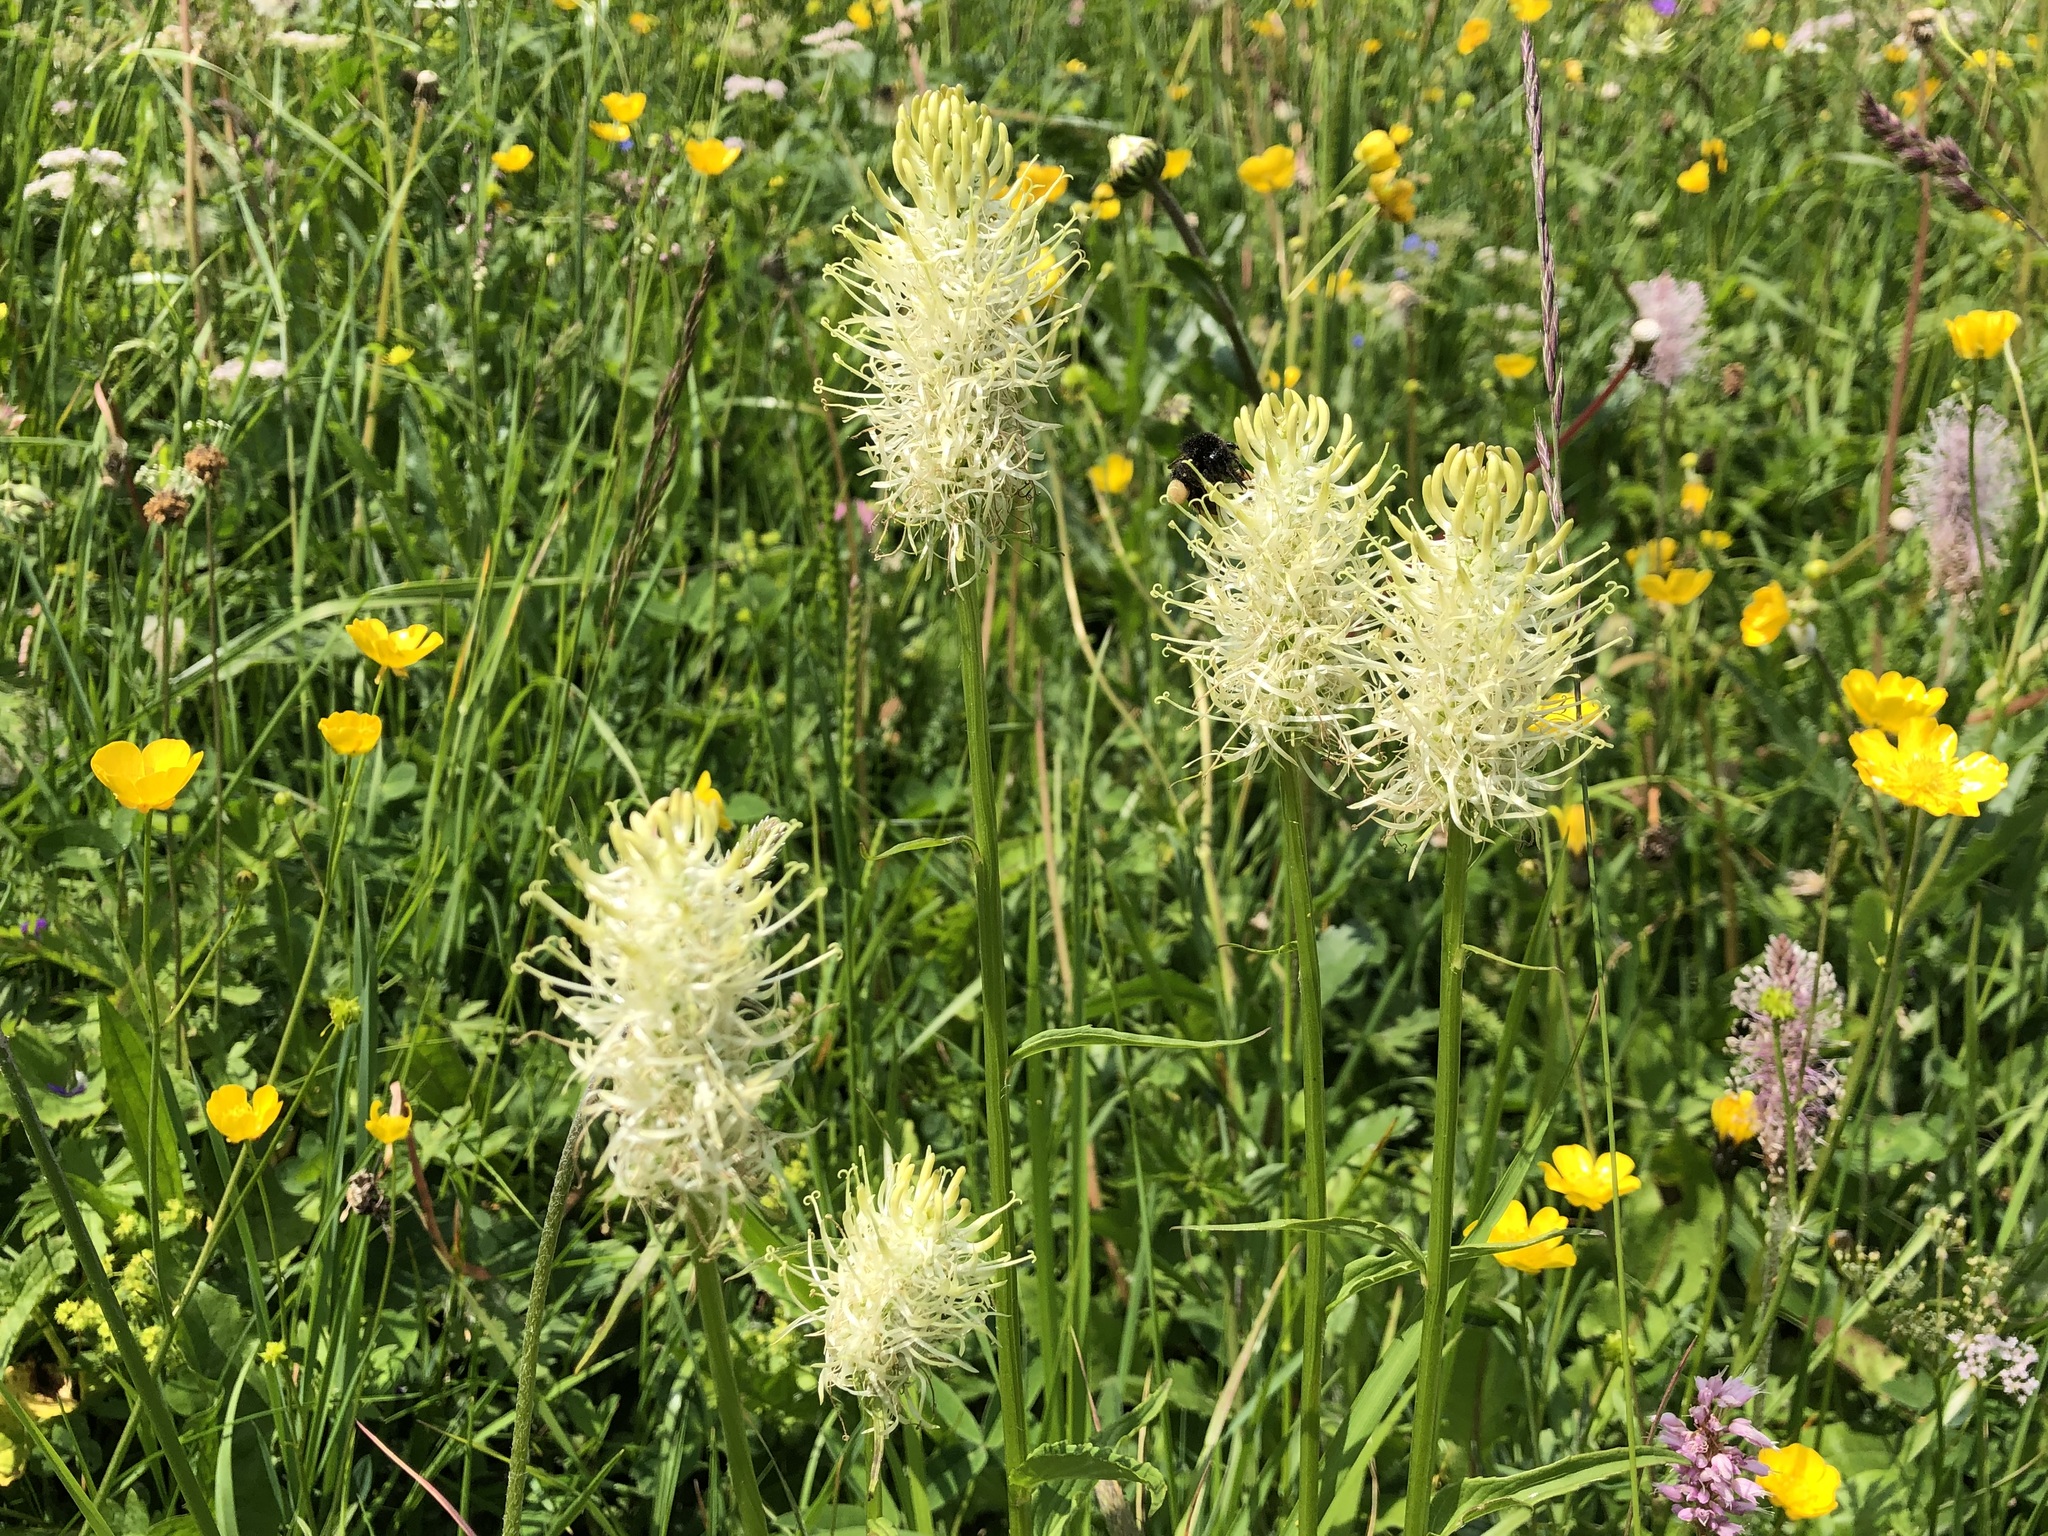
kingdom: Plantae
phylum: Tracheophyta
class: Magnoliopsida
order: Asterales
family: Campanulaceae
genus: Phyteuma
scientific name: Phyteuma spicatum
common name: Spiked rampion
